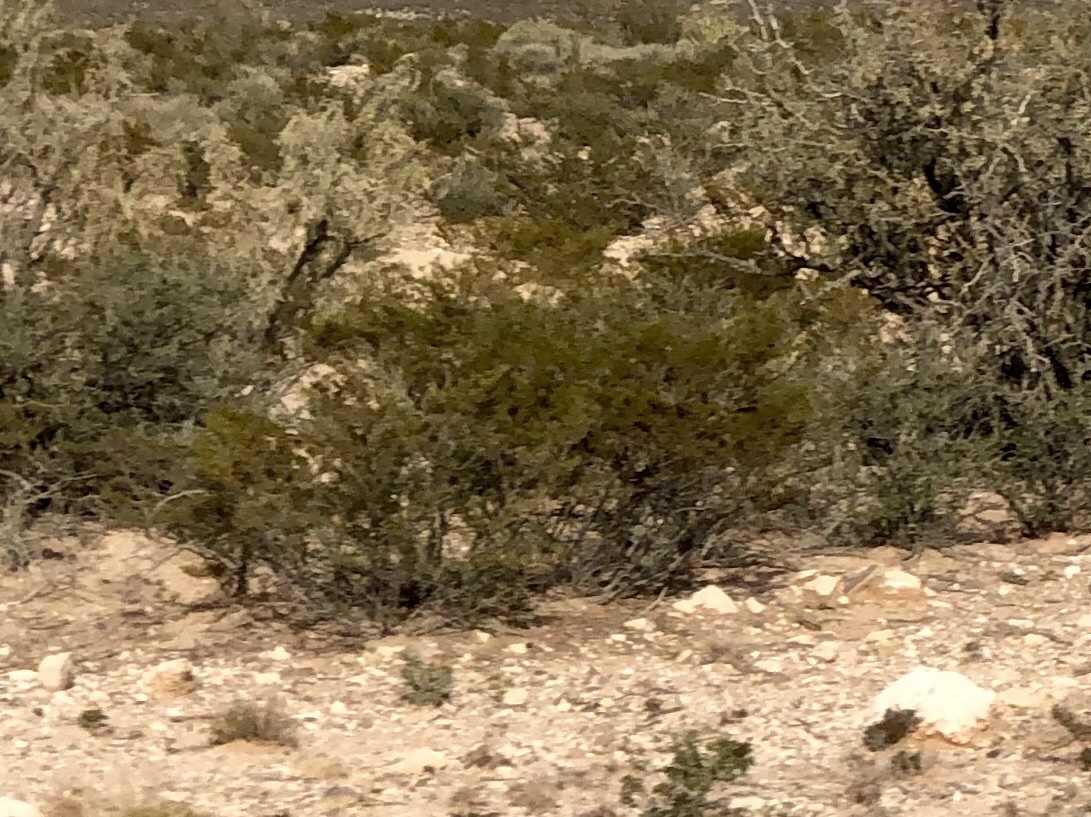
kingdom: Plantae
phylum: Tracheophyta
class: Magnoliopsida
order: Zygophyllales
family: Zygophyllaceae
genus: Larrea
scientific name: Larrea tridentata
